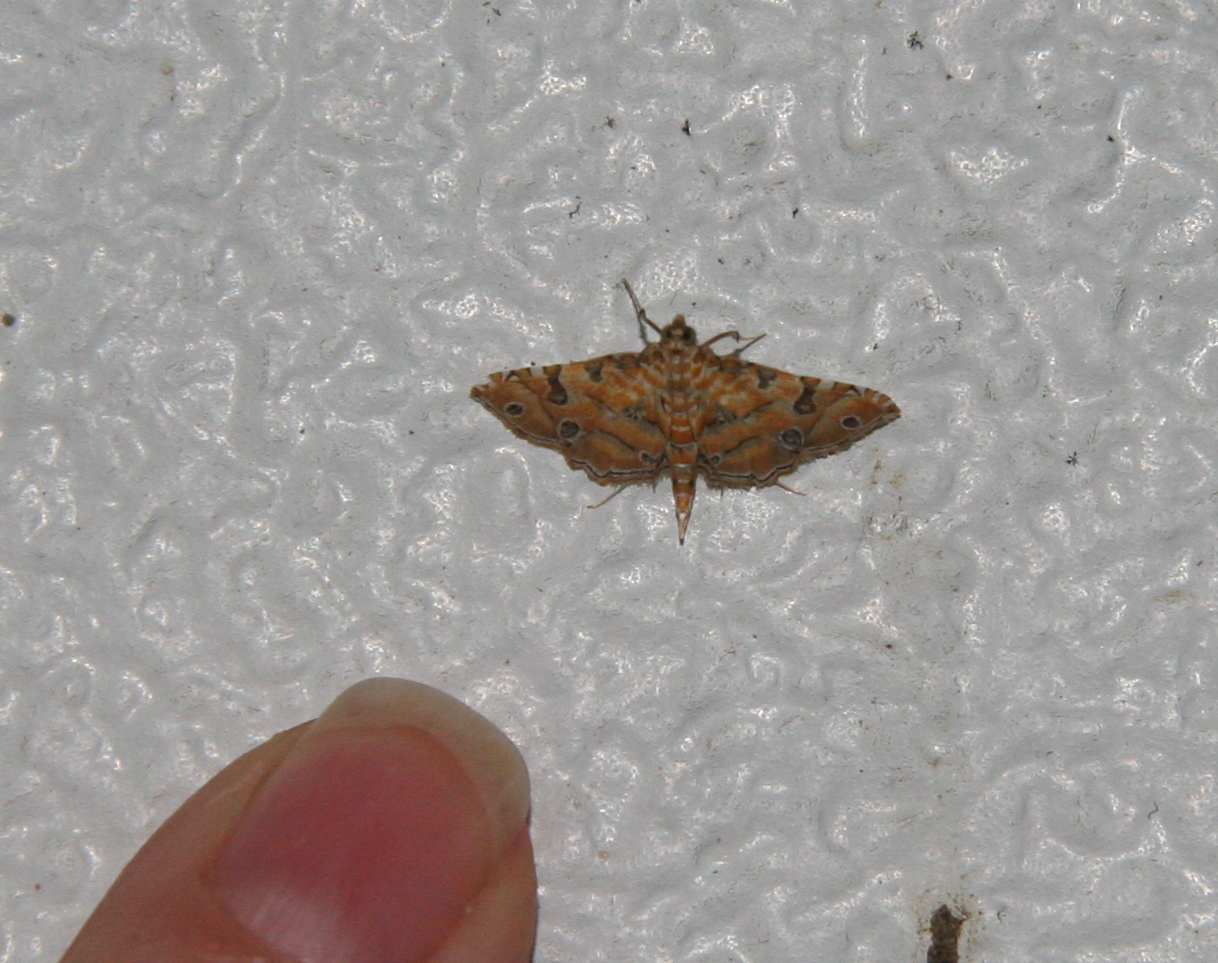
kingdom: Animalia
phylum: Arthropoda
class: Insecta
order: Lepidoptera
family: Crambidae
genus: Ommatospila
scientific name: Ommatospila narcaeusalis
